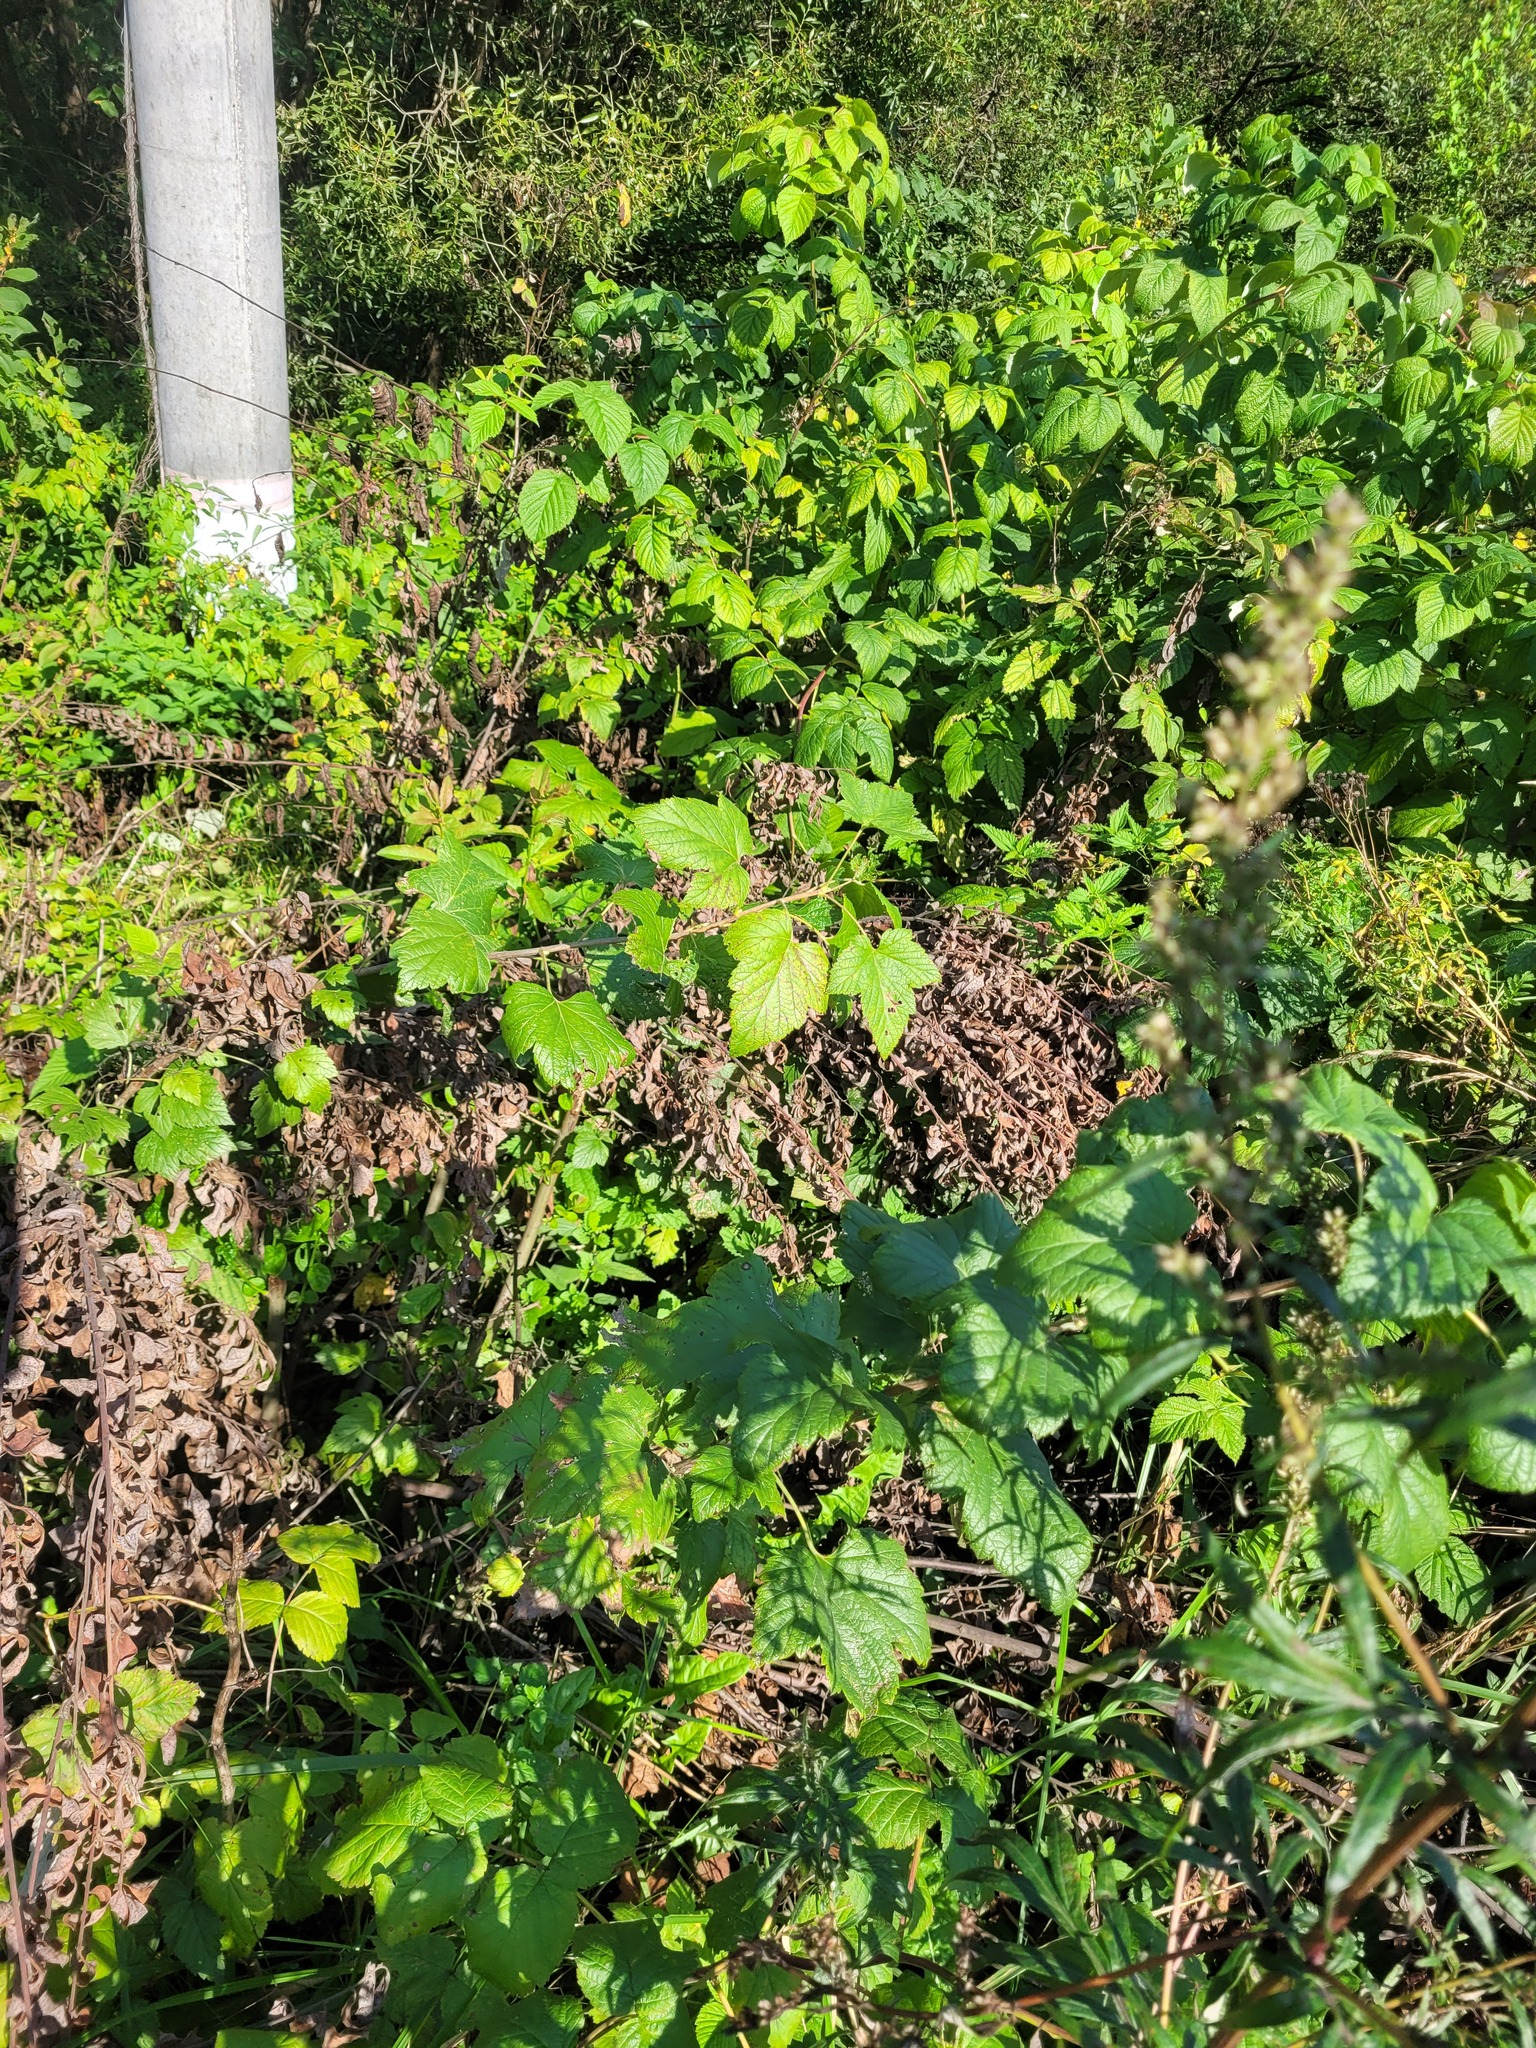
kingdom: Plantae
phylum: Tracheophyta
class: Magnoliopsida
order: Saxifragales
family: Grossulariaceae
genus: Ribes
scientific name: Ribes nigrum
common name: Black currant
